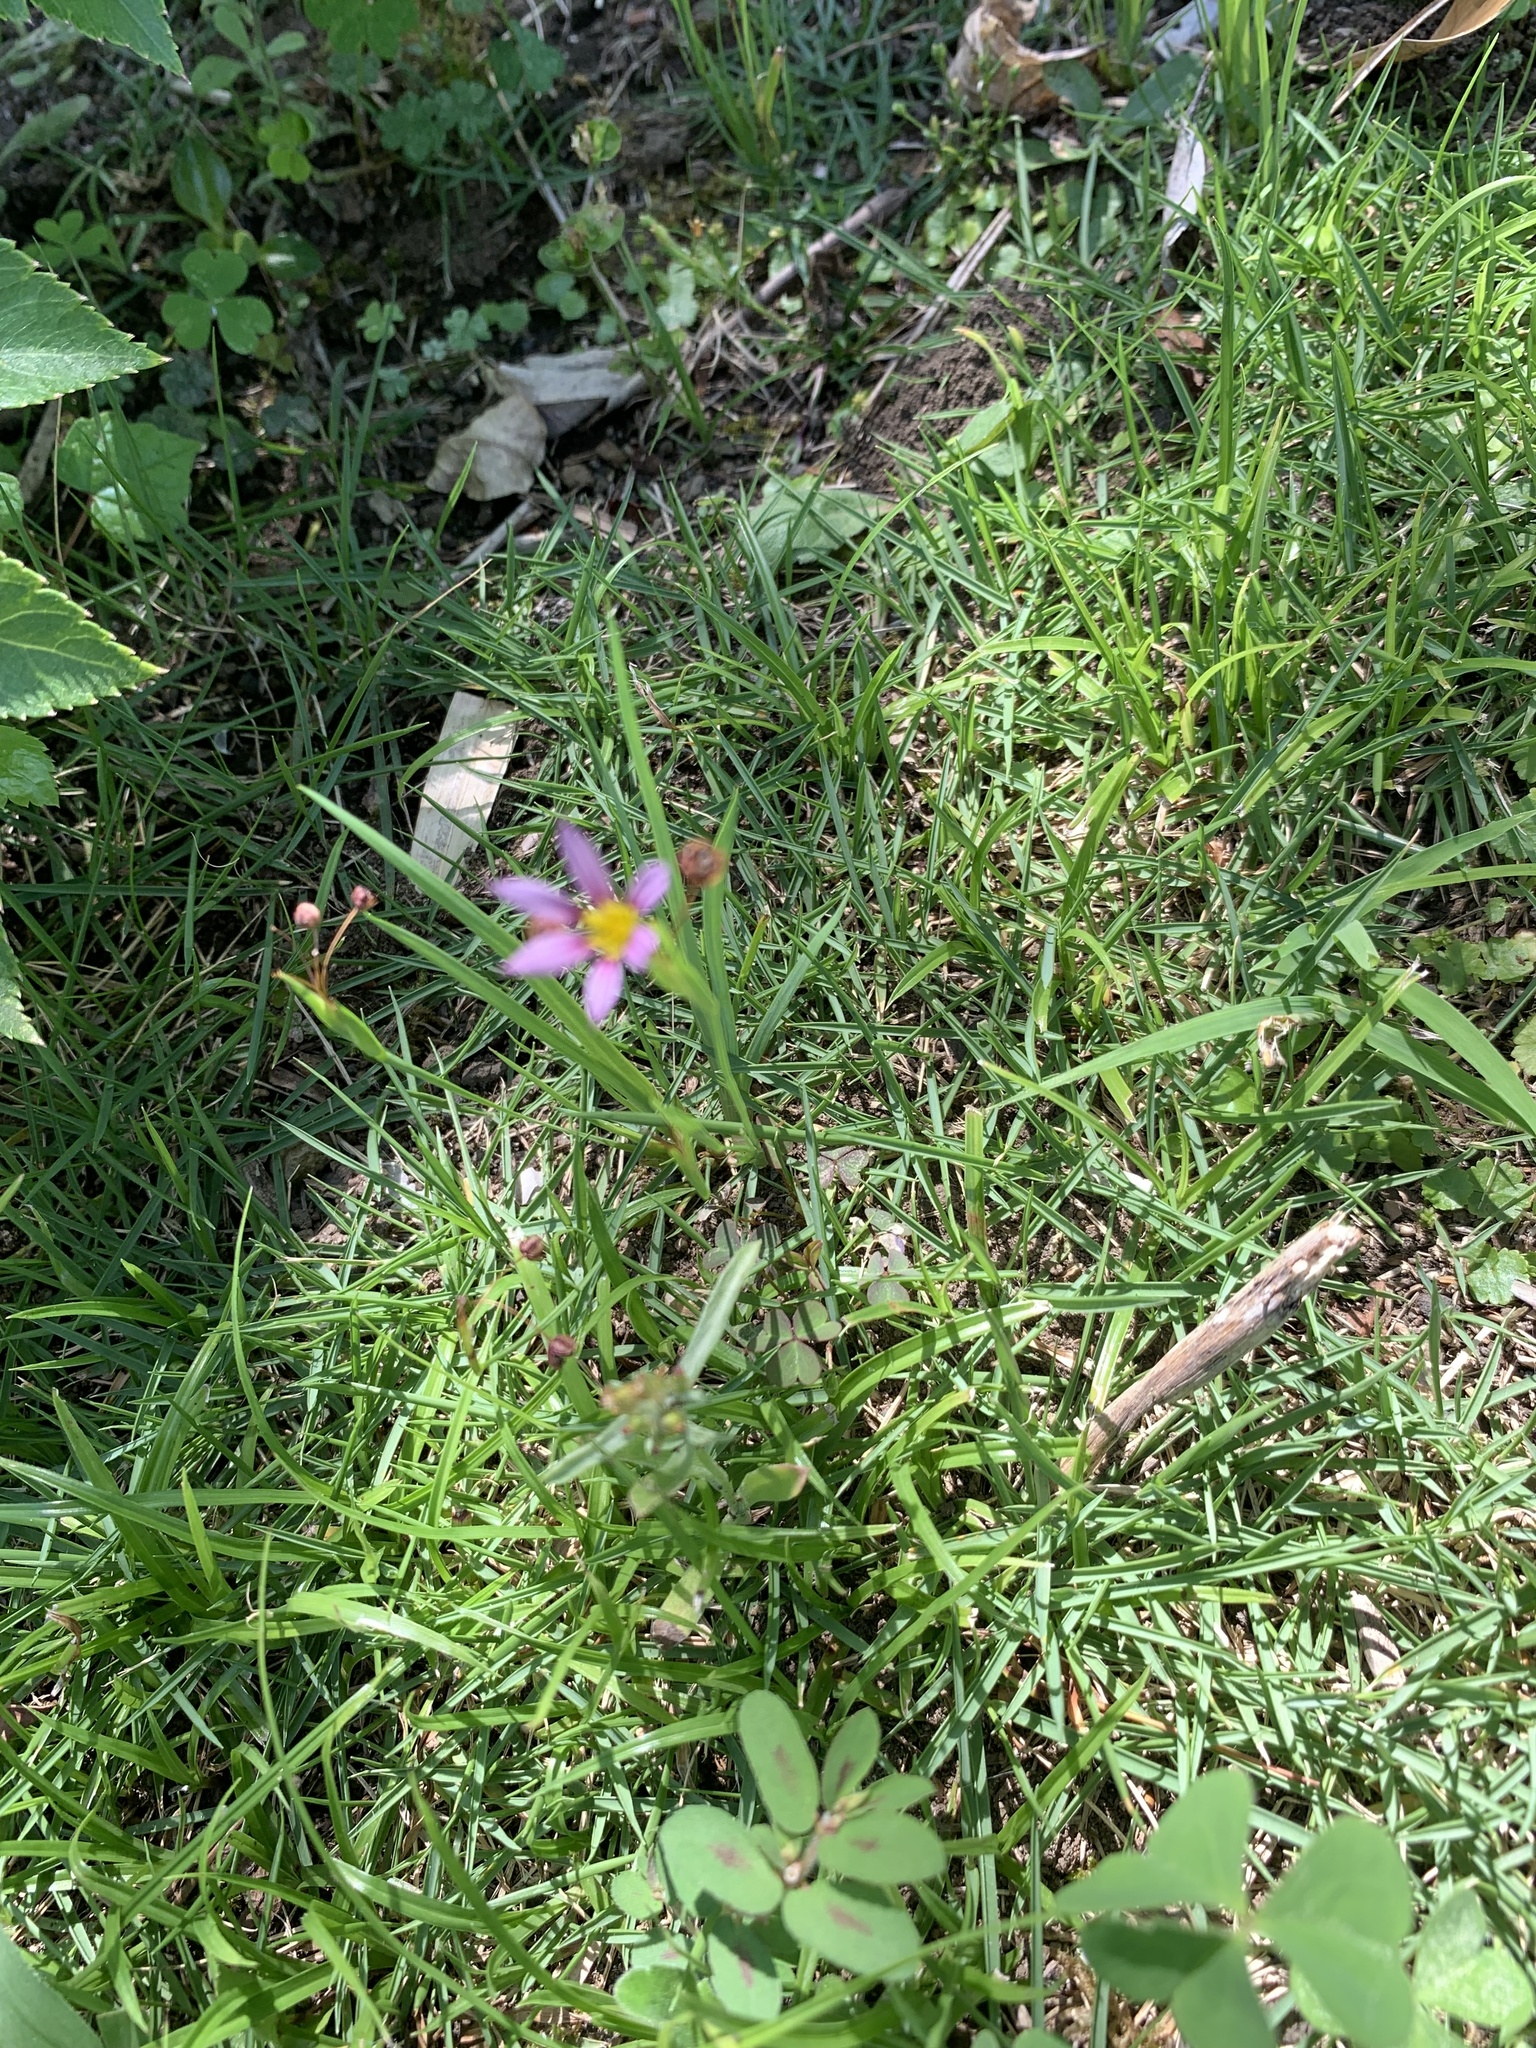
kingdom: Plantae
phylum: Tracheophyta
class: Liliopsida
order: Asparagales
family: Iridaceae
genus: Sisyrinchium
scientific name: Sisyrinchium micranthum
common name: Bermuda pigroot
